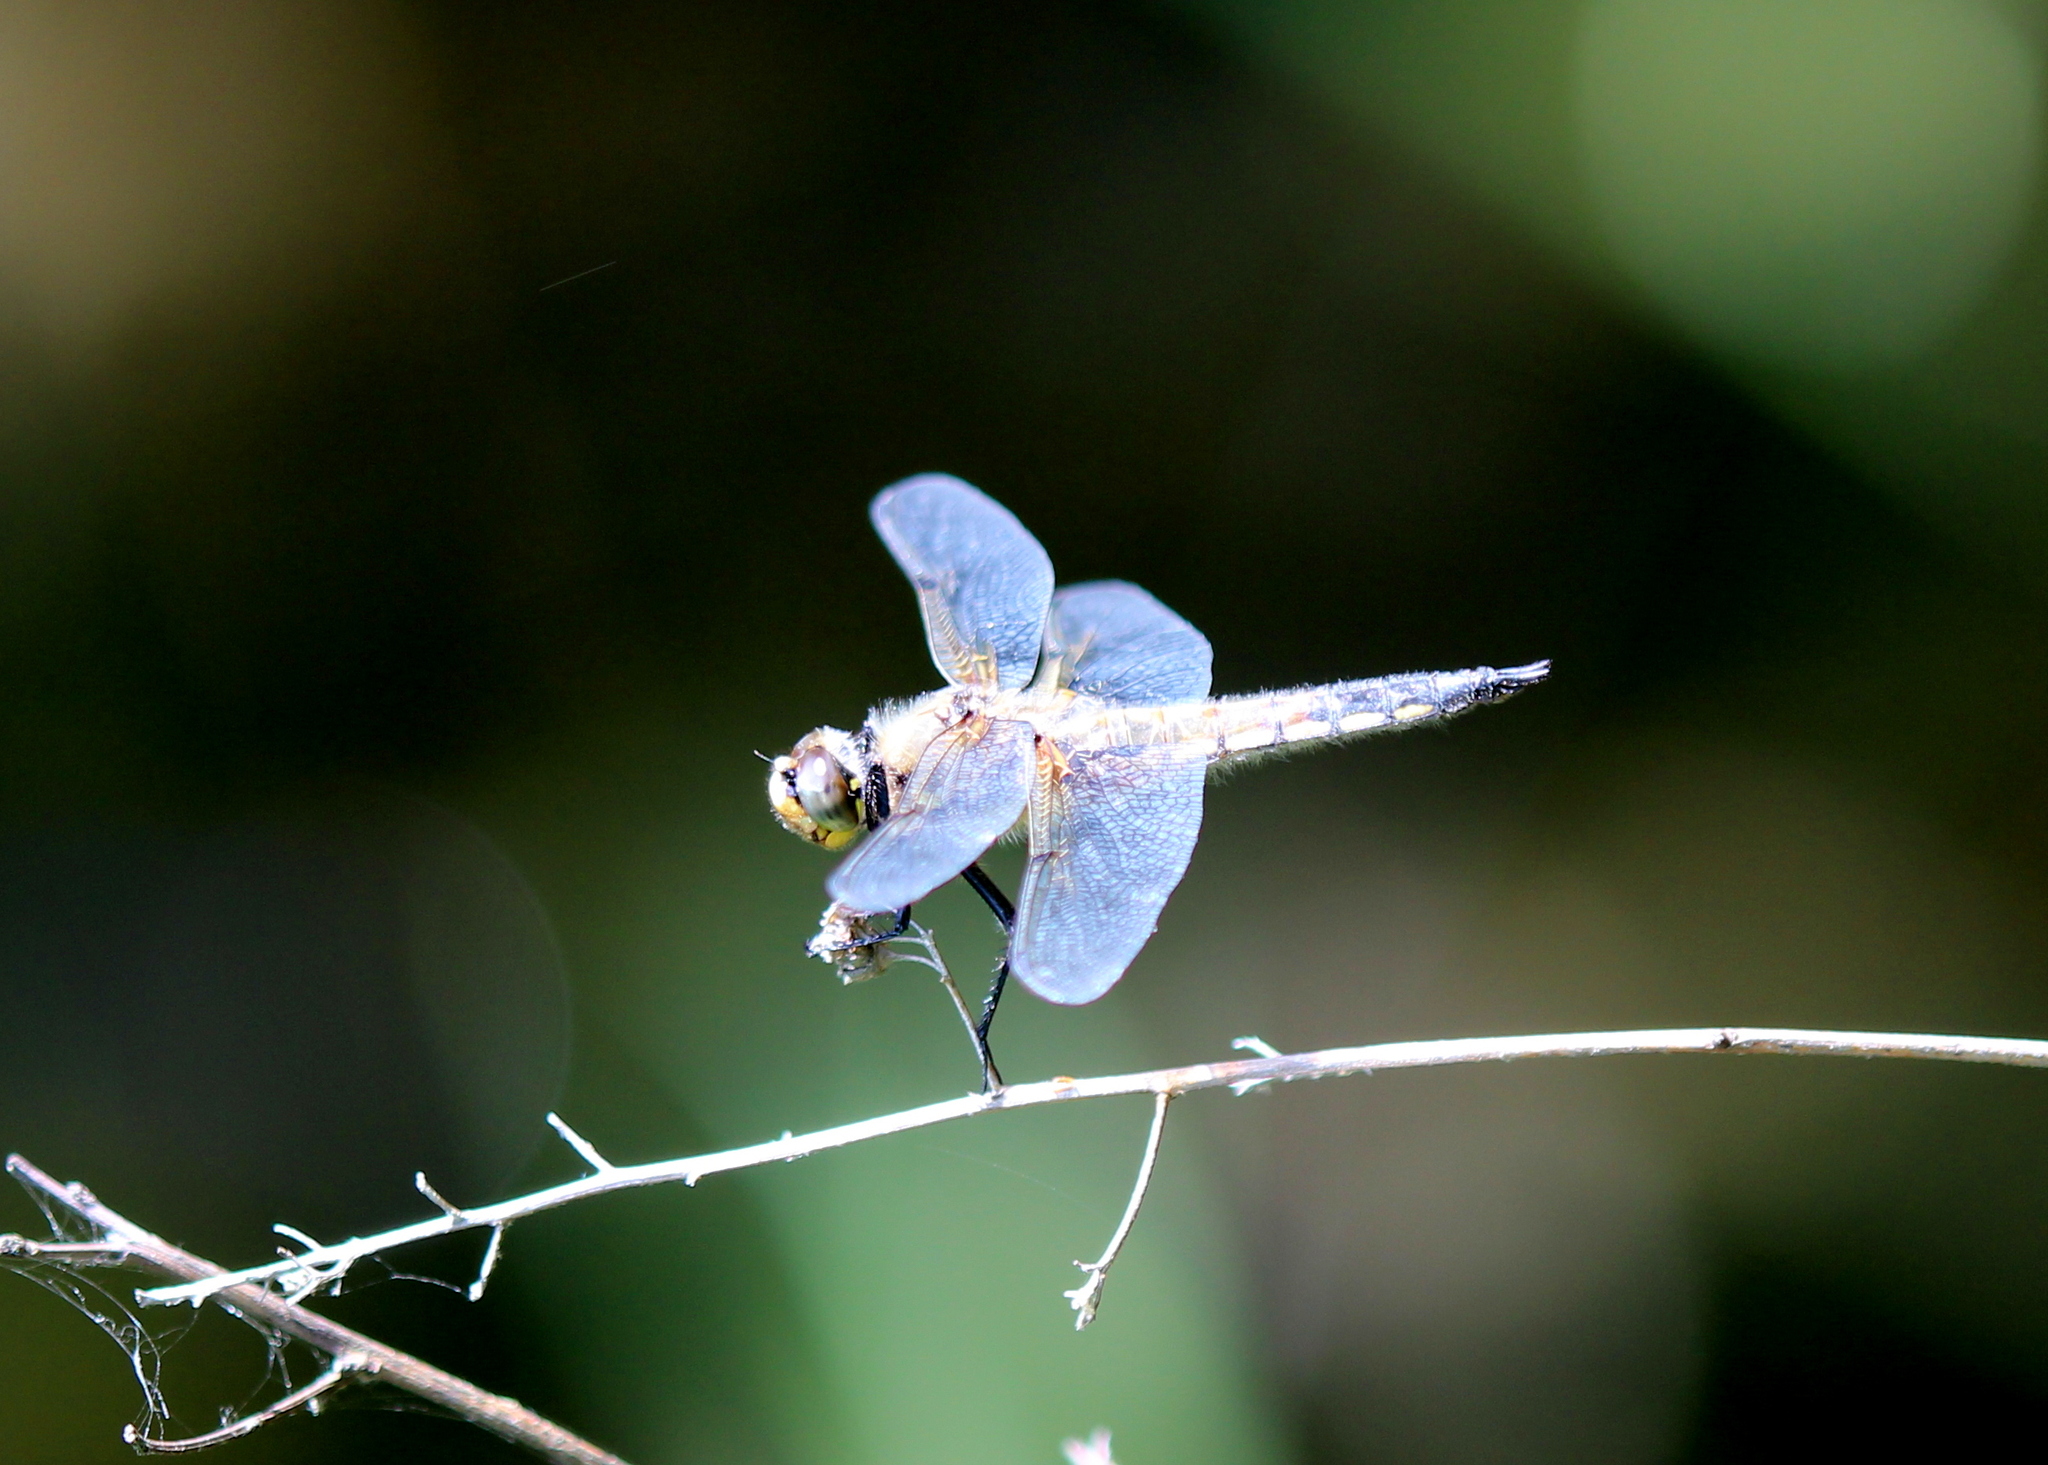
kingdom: Animalia
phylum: Arthropoda
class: Insecta
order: Odonata
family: Libellulidae
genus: Libellula
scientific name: Libellula quadrimaculata
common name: Four-spotted chaser
